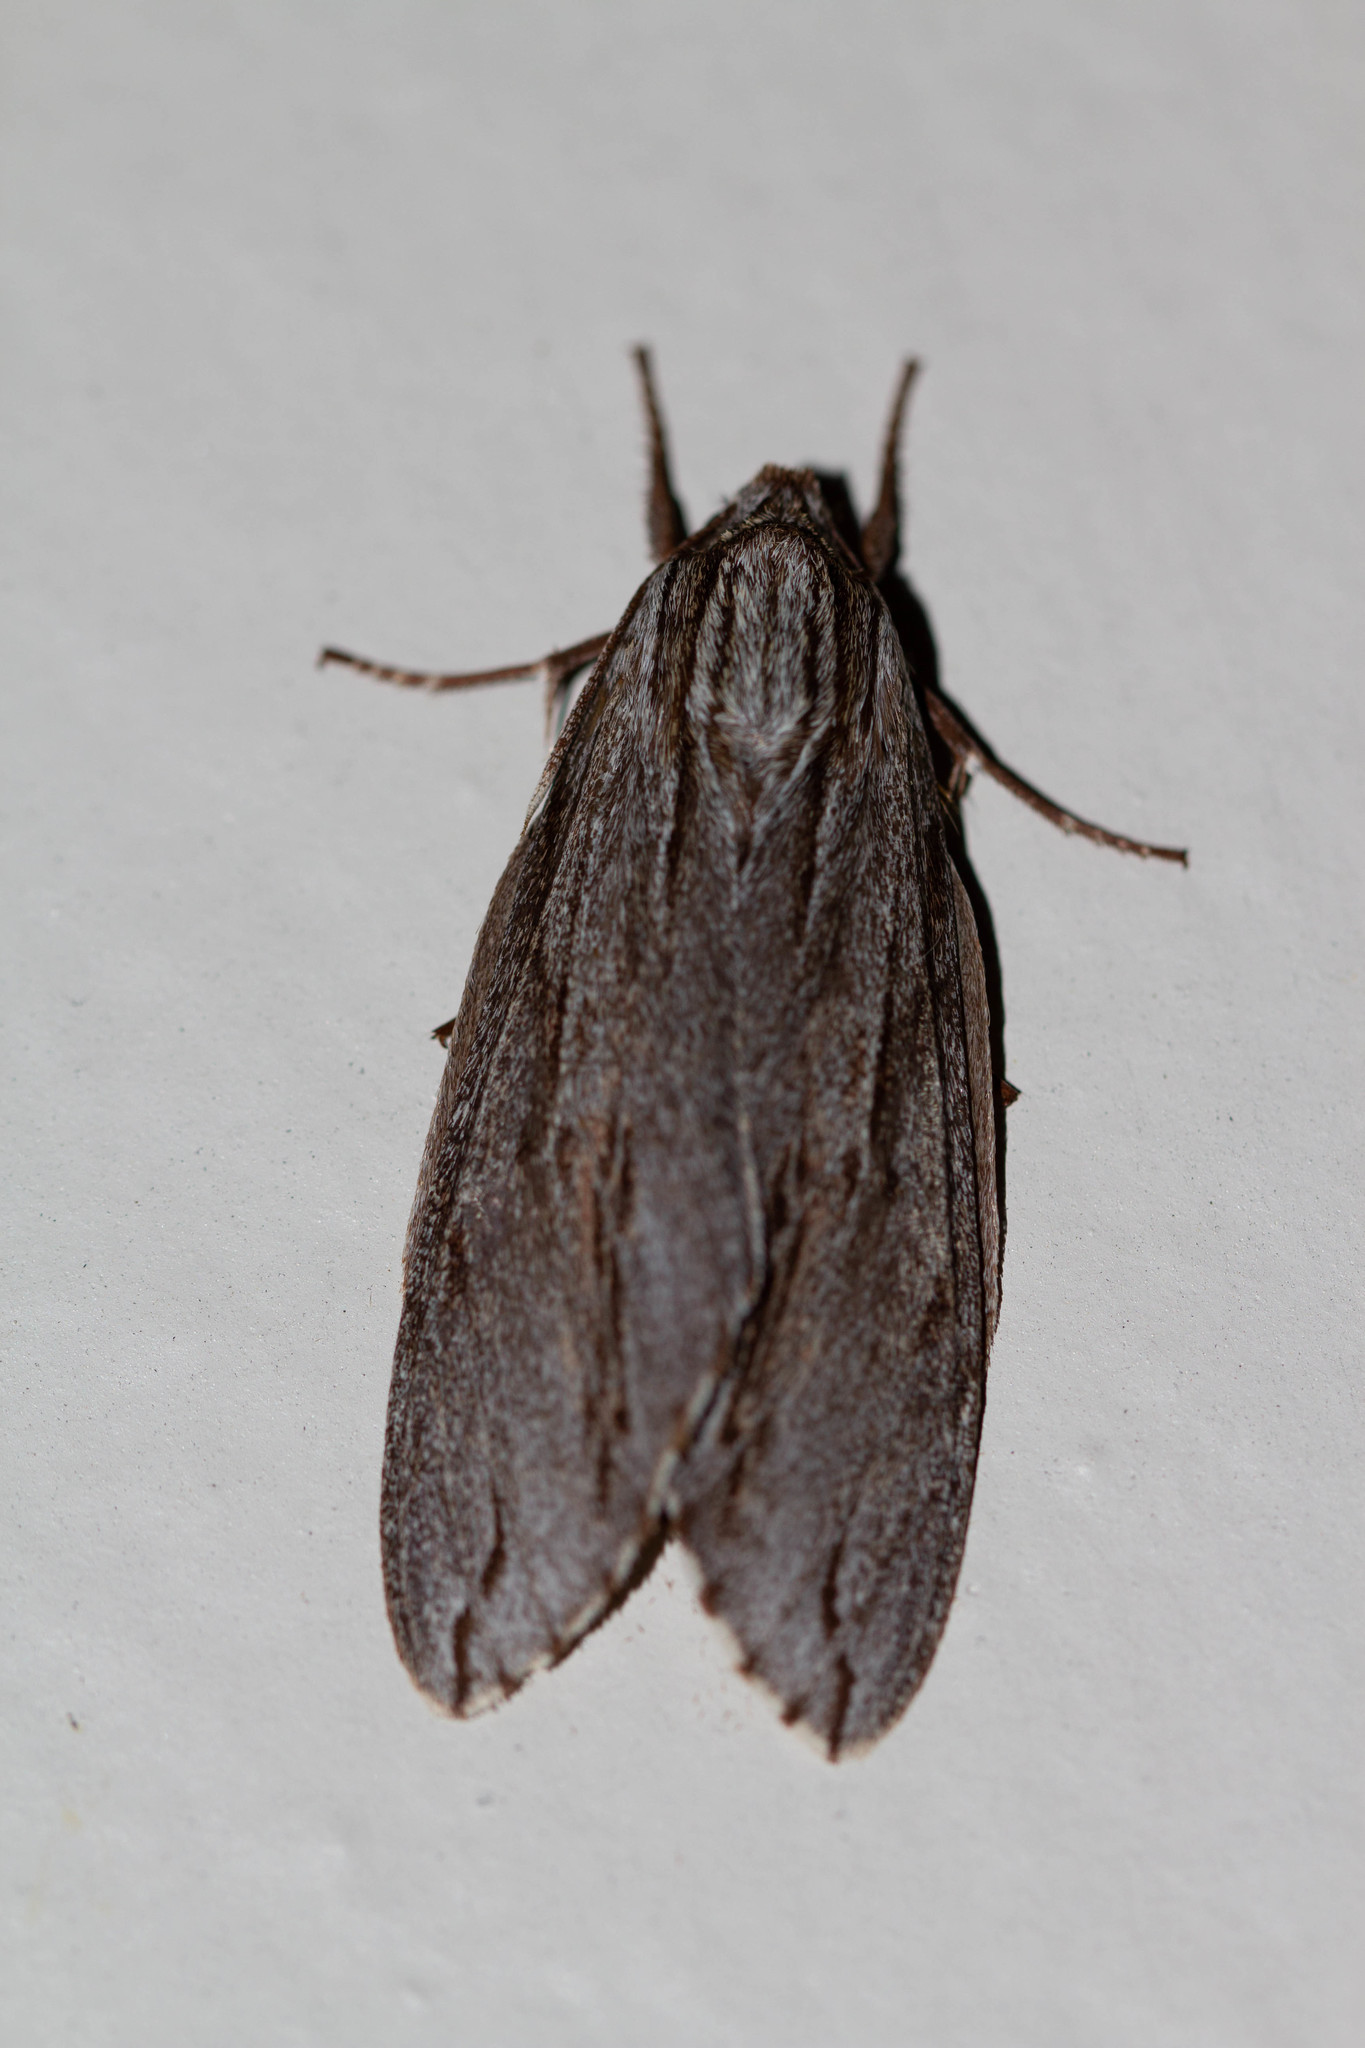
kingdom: Animalia
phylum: Arthropoda
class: Insecta
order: Lepidoptera
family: Sphingidae
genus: Isoparce
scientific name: Isoparce cupressi
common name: Cypress sphinx
